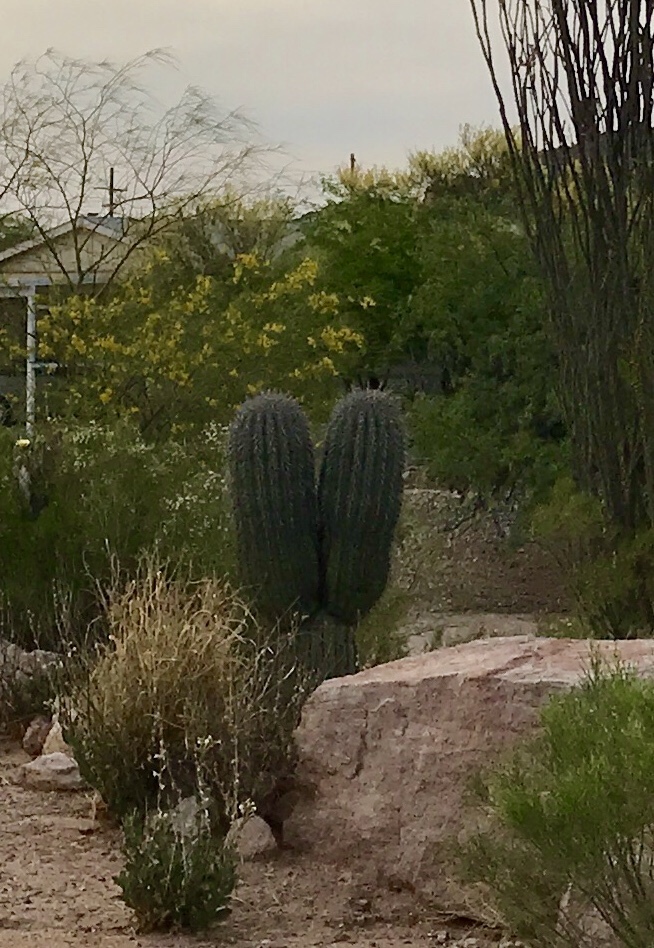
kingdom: Plantae
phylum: Tracheophyta
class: Magnoliopsida
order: Caryophyllales
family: Cactaceae
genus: Carnegiea
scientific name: Carnegiea gigantea
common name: Saguaro
